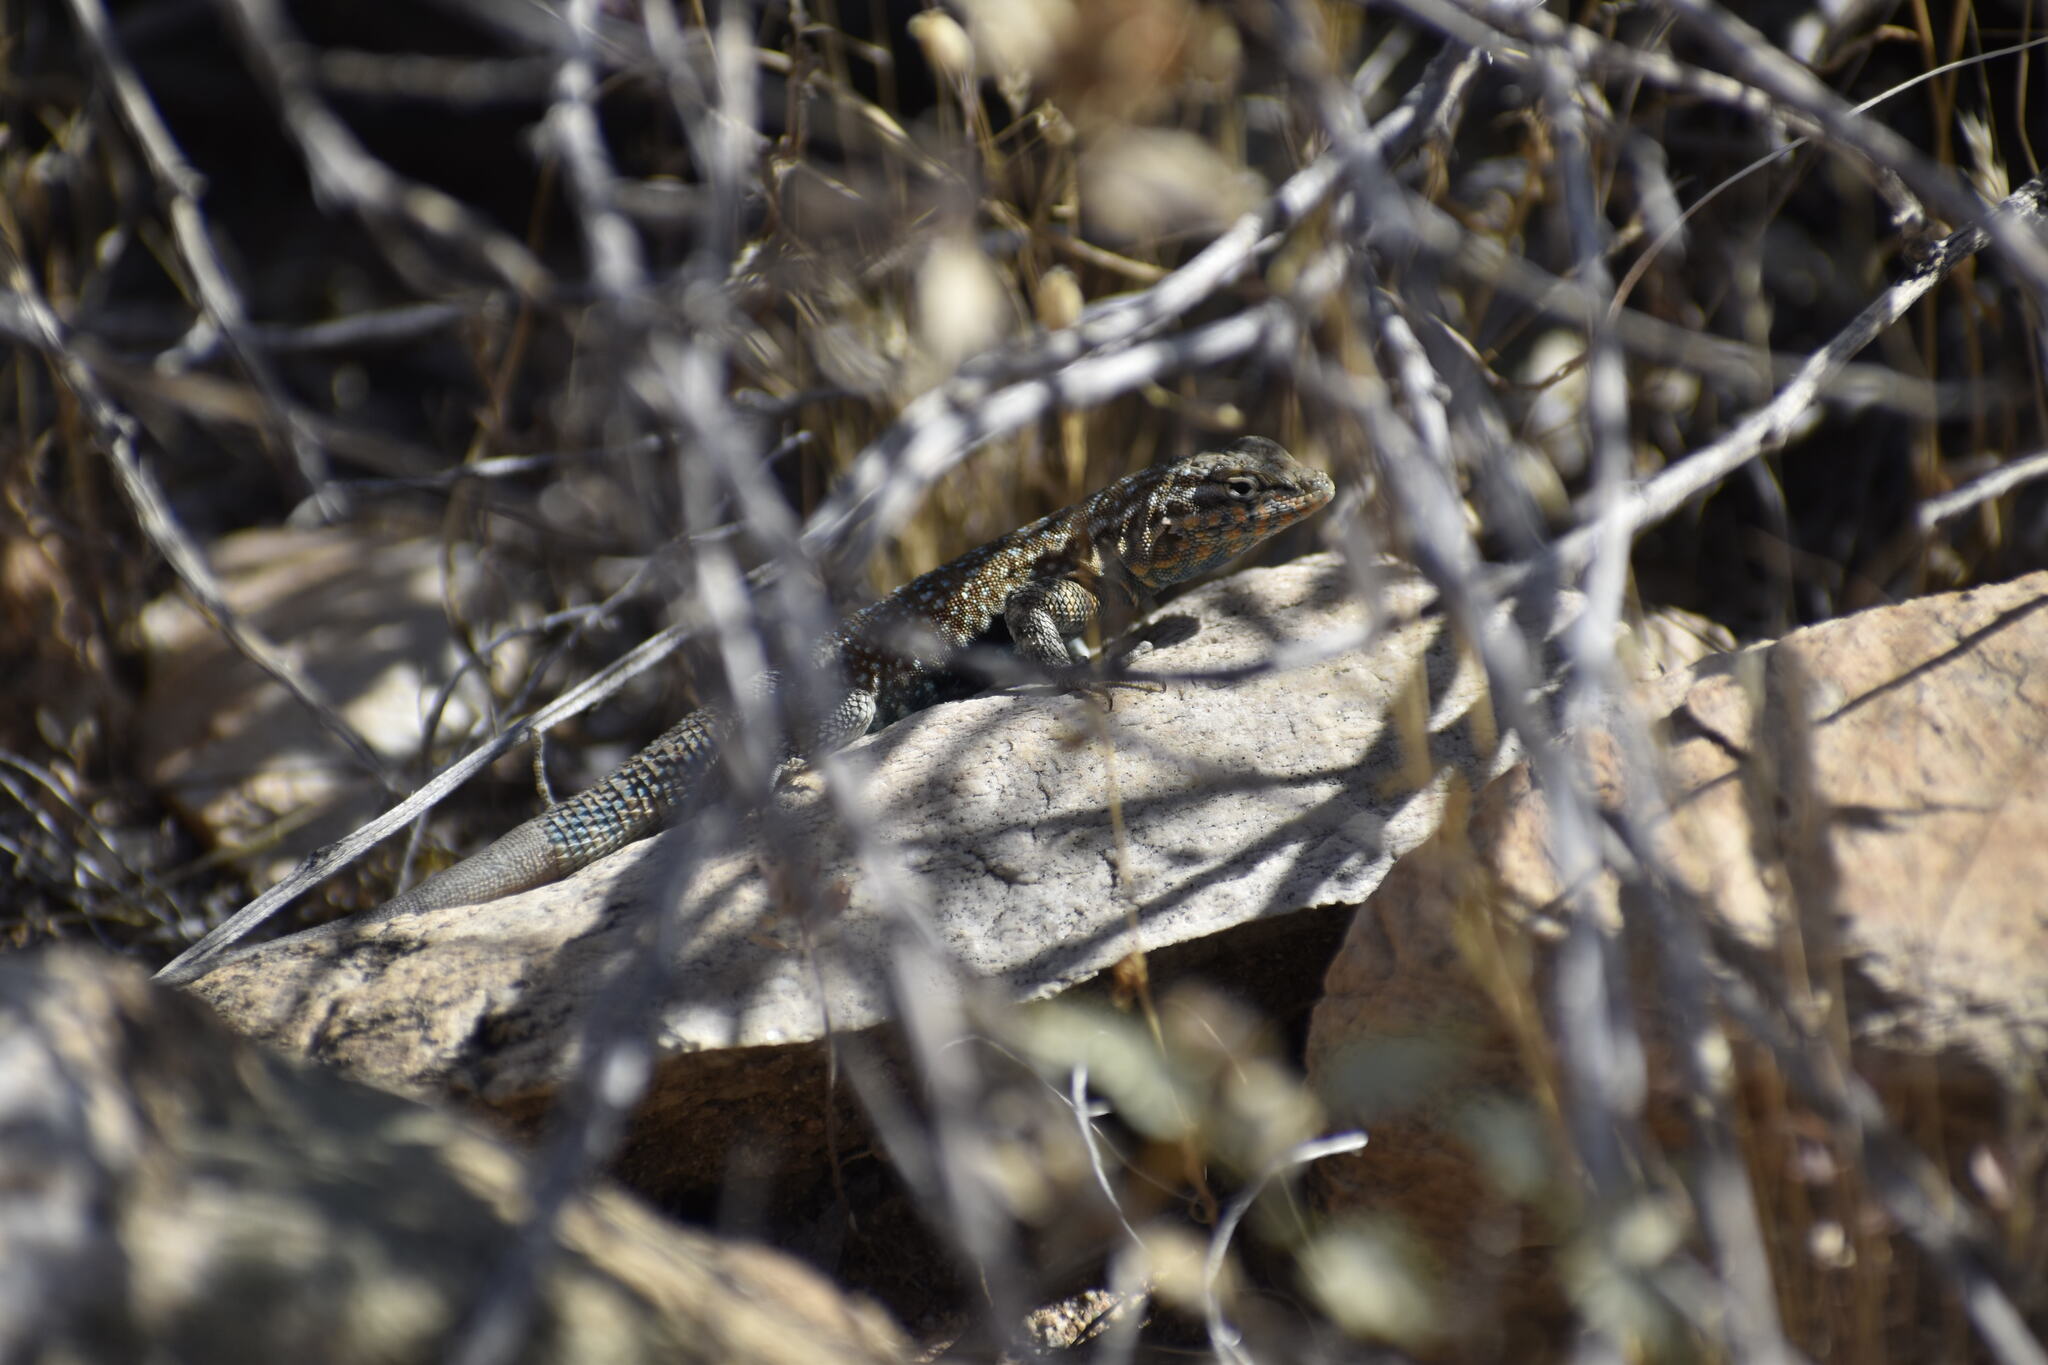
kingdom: Animalia
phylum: Chordata
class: Squamata
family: Phrynosomatidae
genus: Uta
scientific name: Uta stansburiana
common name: Side-blotched lizard
